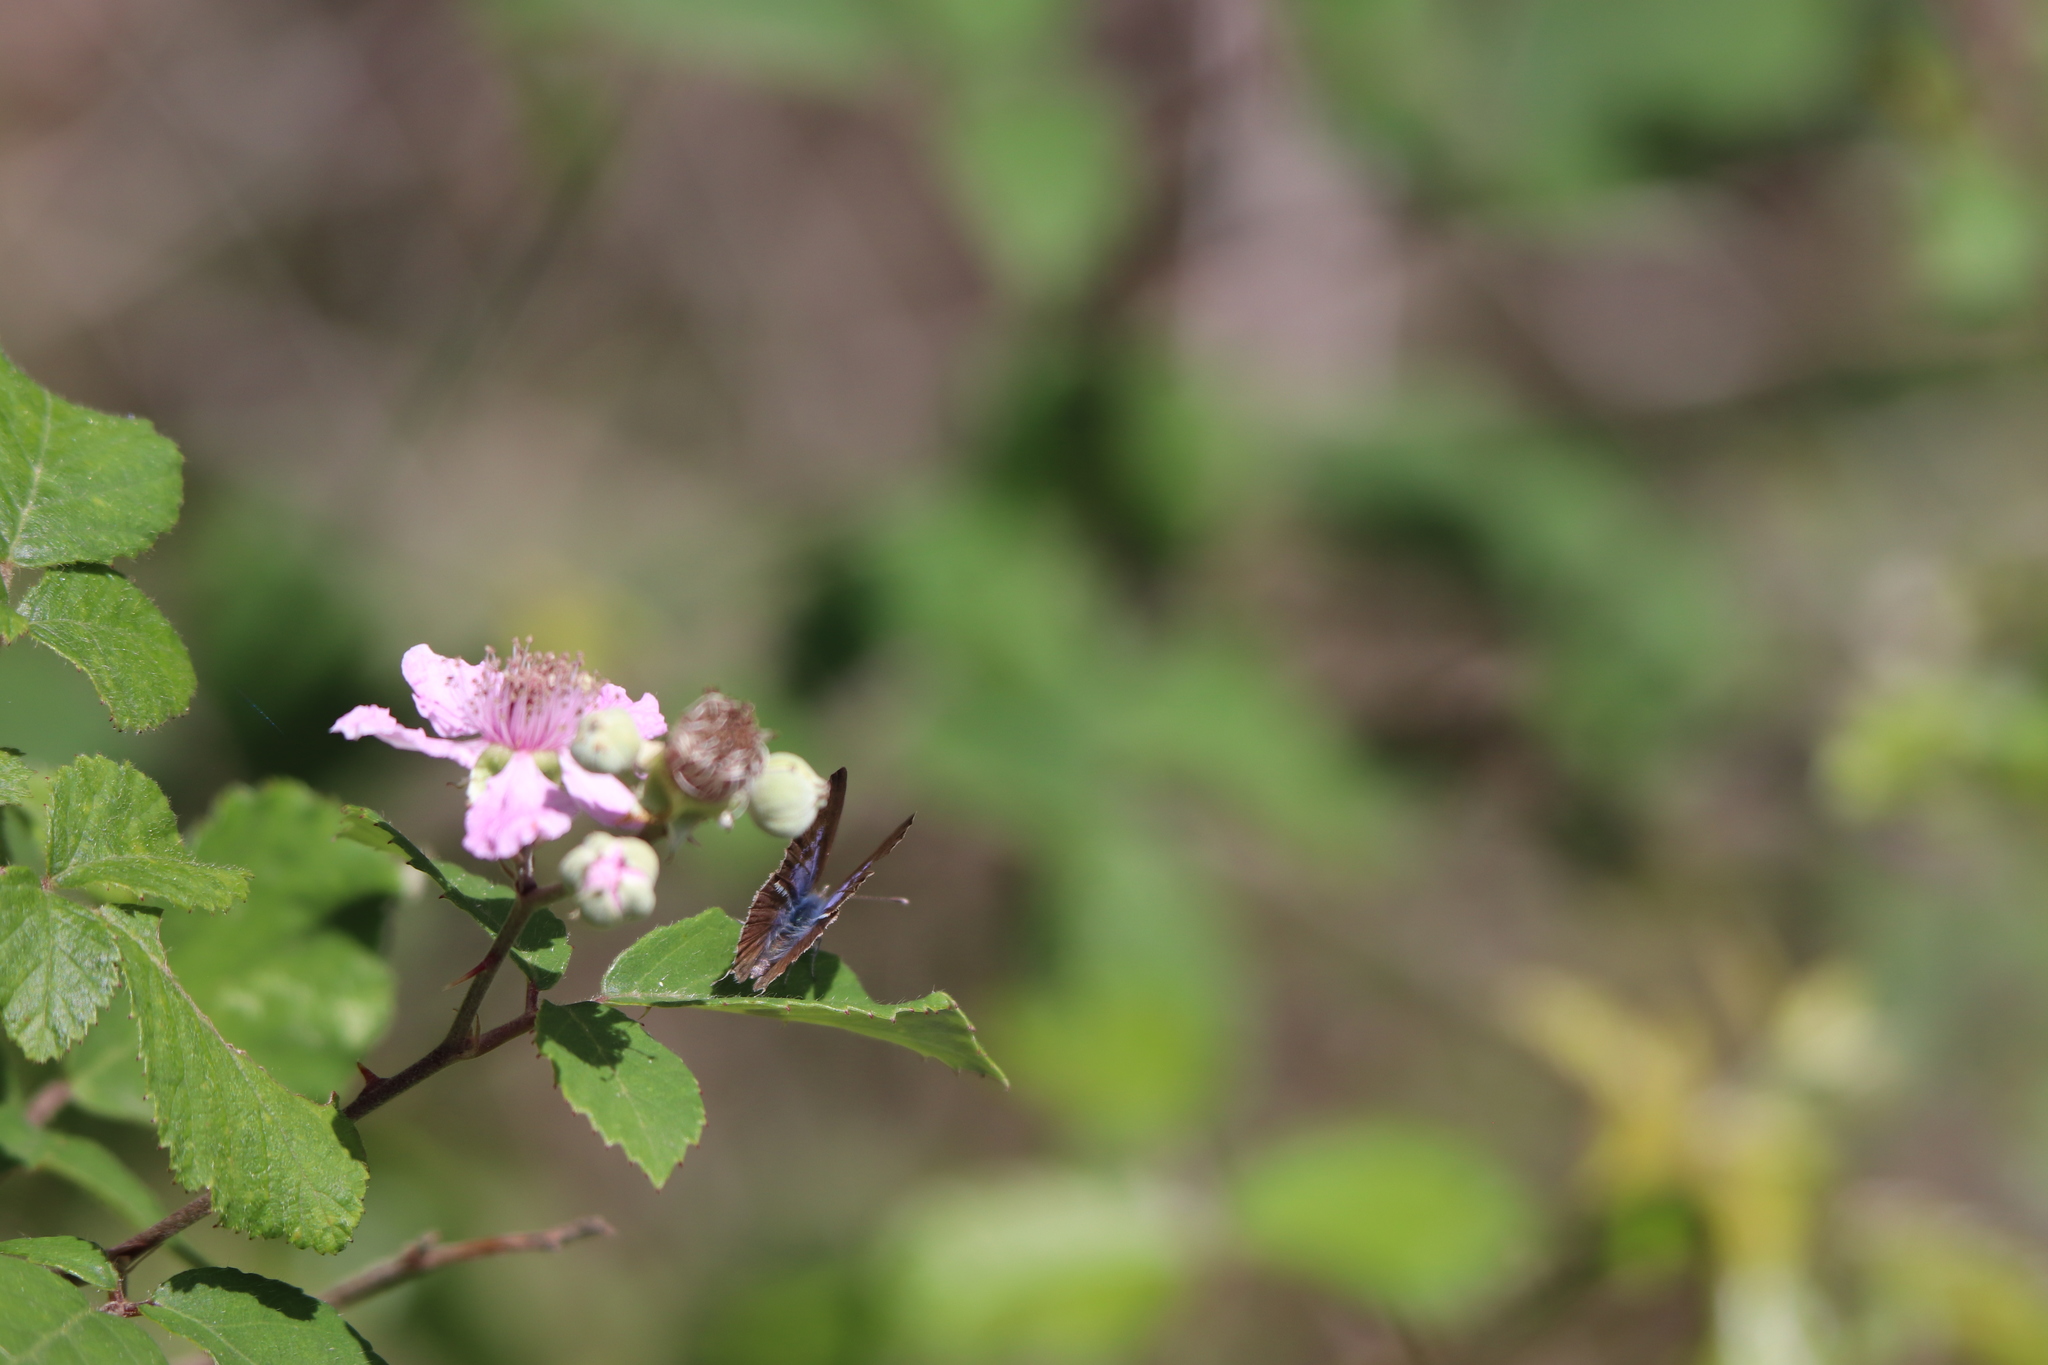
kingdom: Animalia
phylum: Arthropoda
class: Insecta
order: Lepidoptera
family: Lycaenidae
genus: Leptotes
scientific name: Leptotes pirithous
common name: Lang's short-tailed blue
